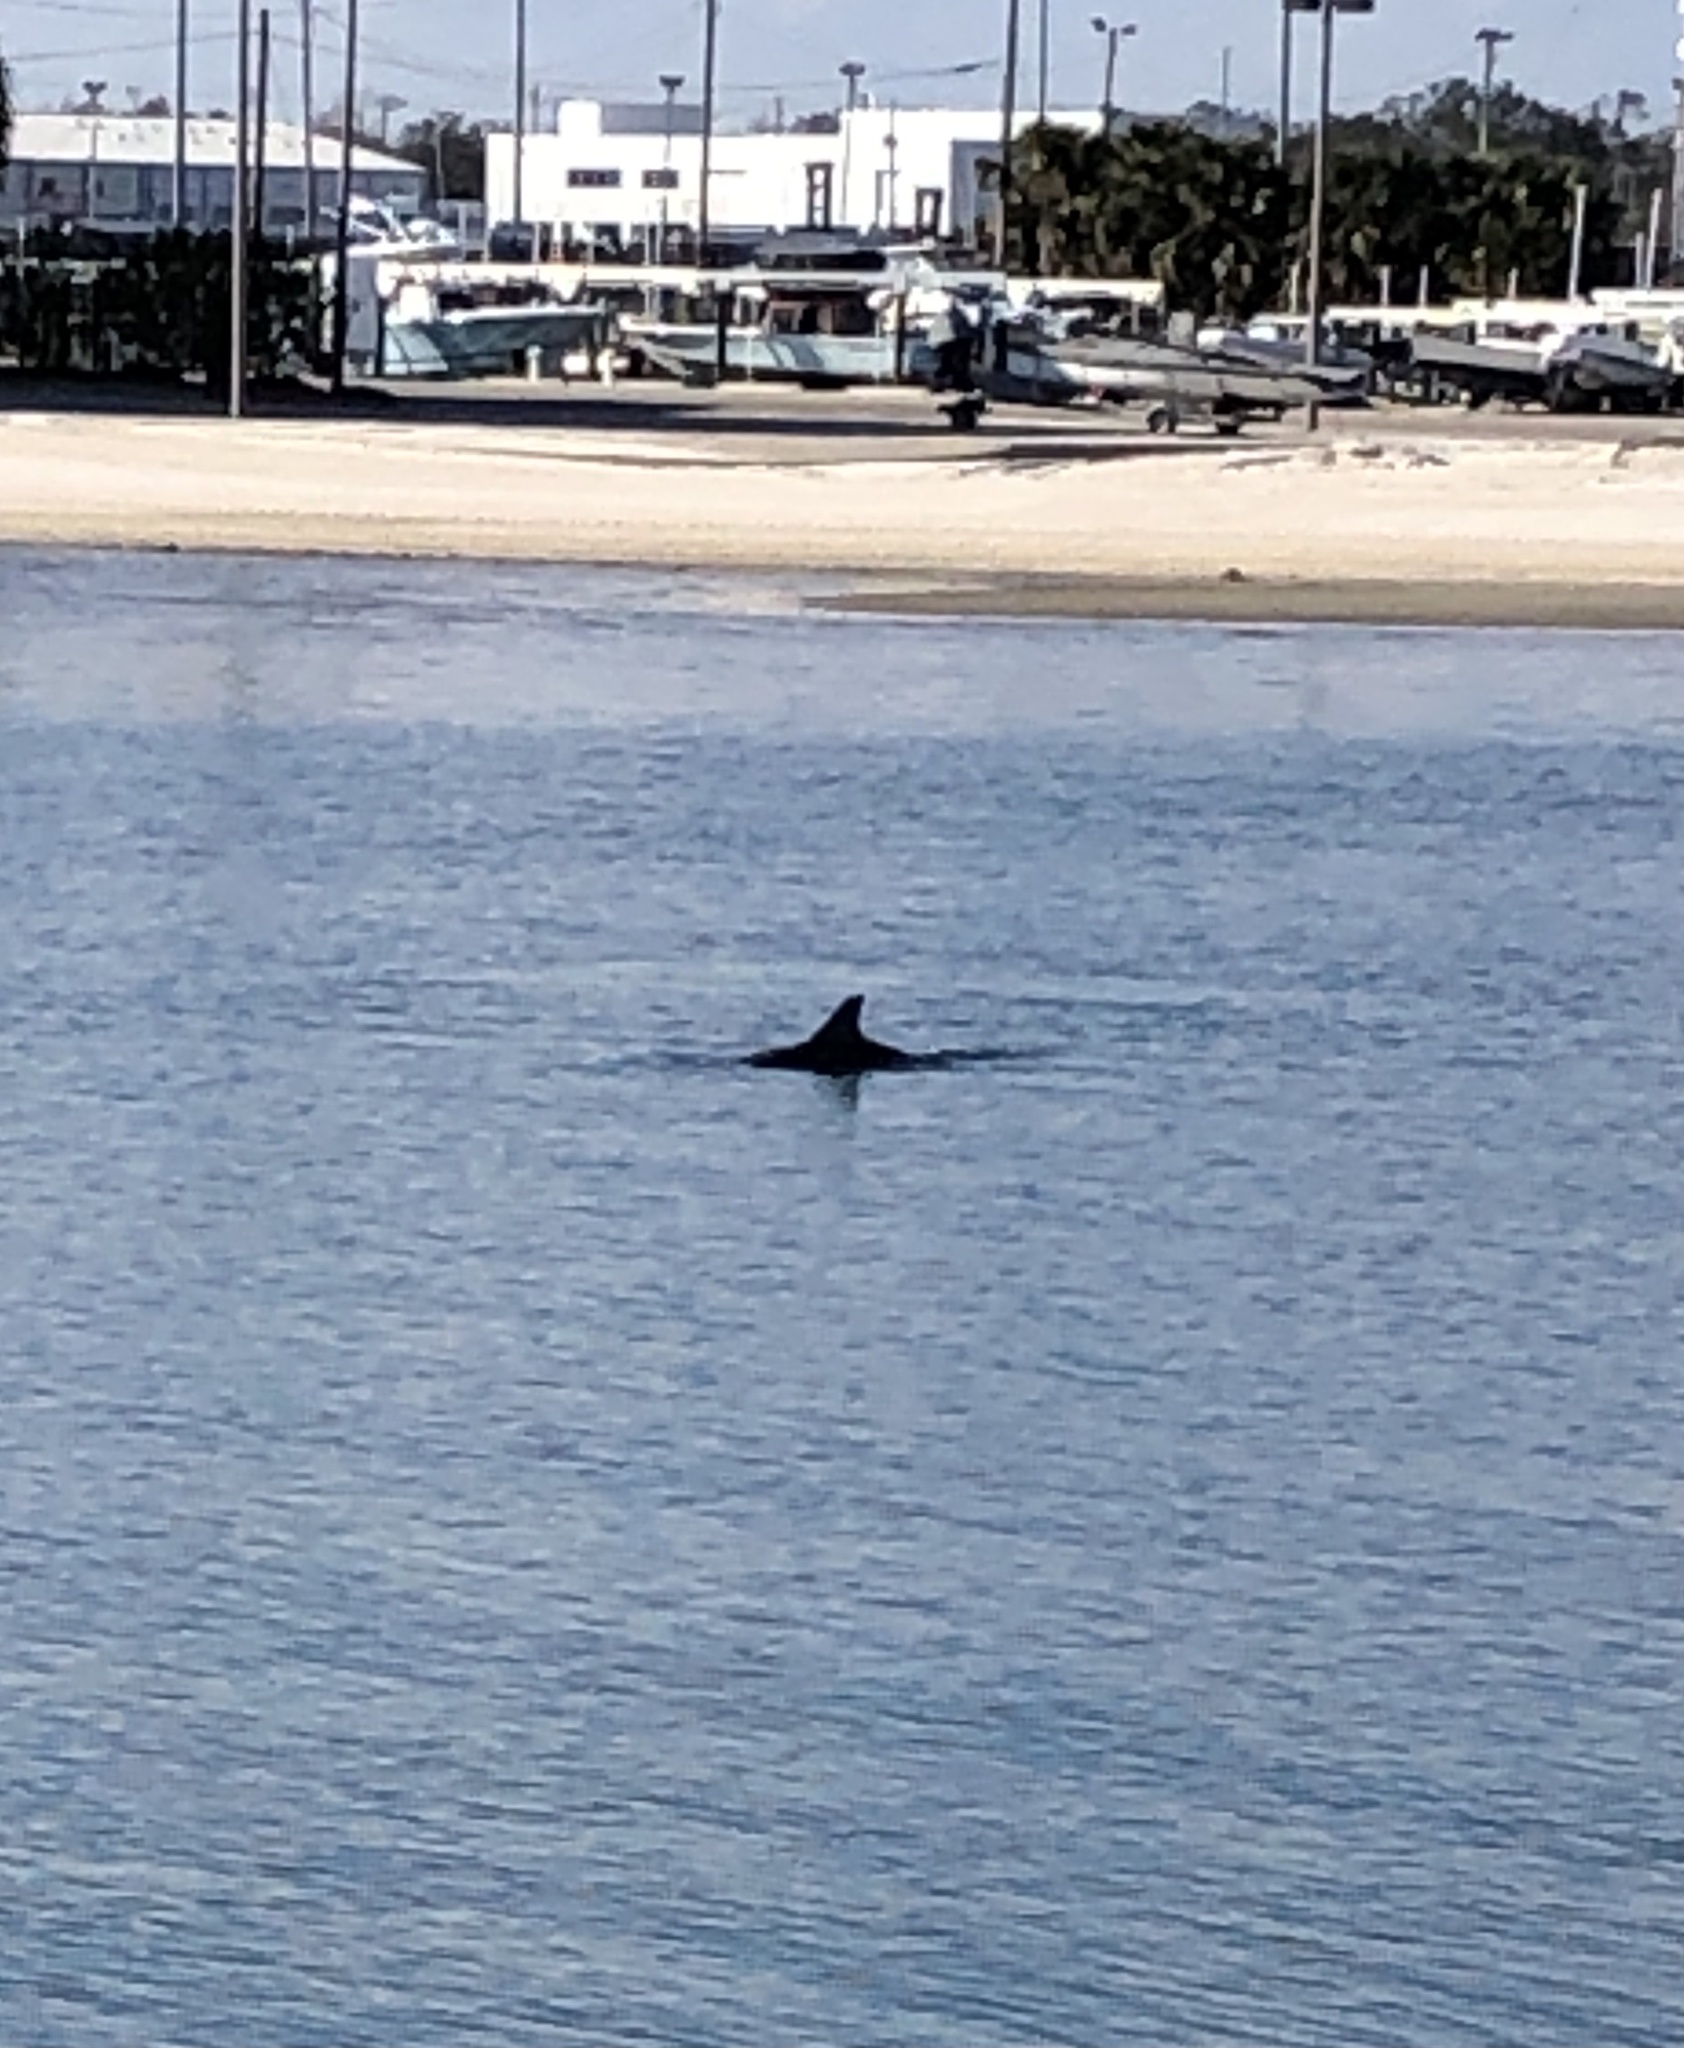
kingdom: Animalia
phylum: Chordata
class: Mammalia
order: Cetacea
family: Delphinidae
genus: Tursiops
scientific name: Tursiops truncatus
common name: Bottlenose dolphin
